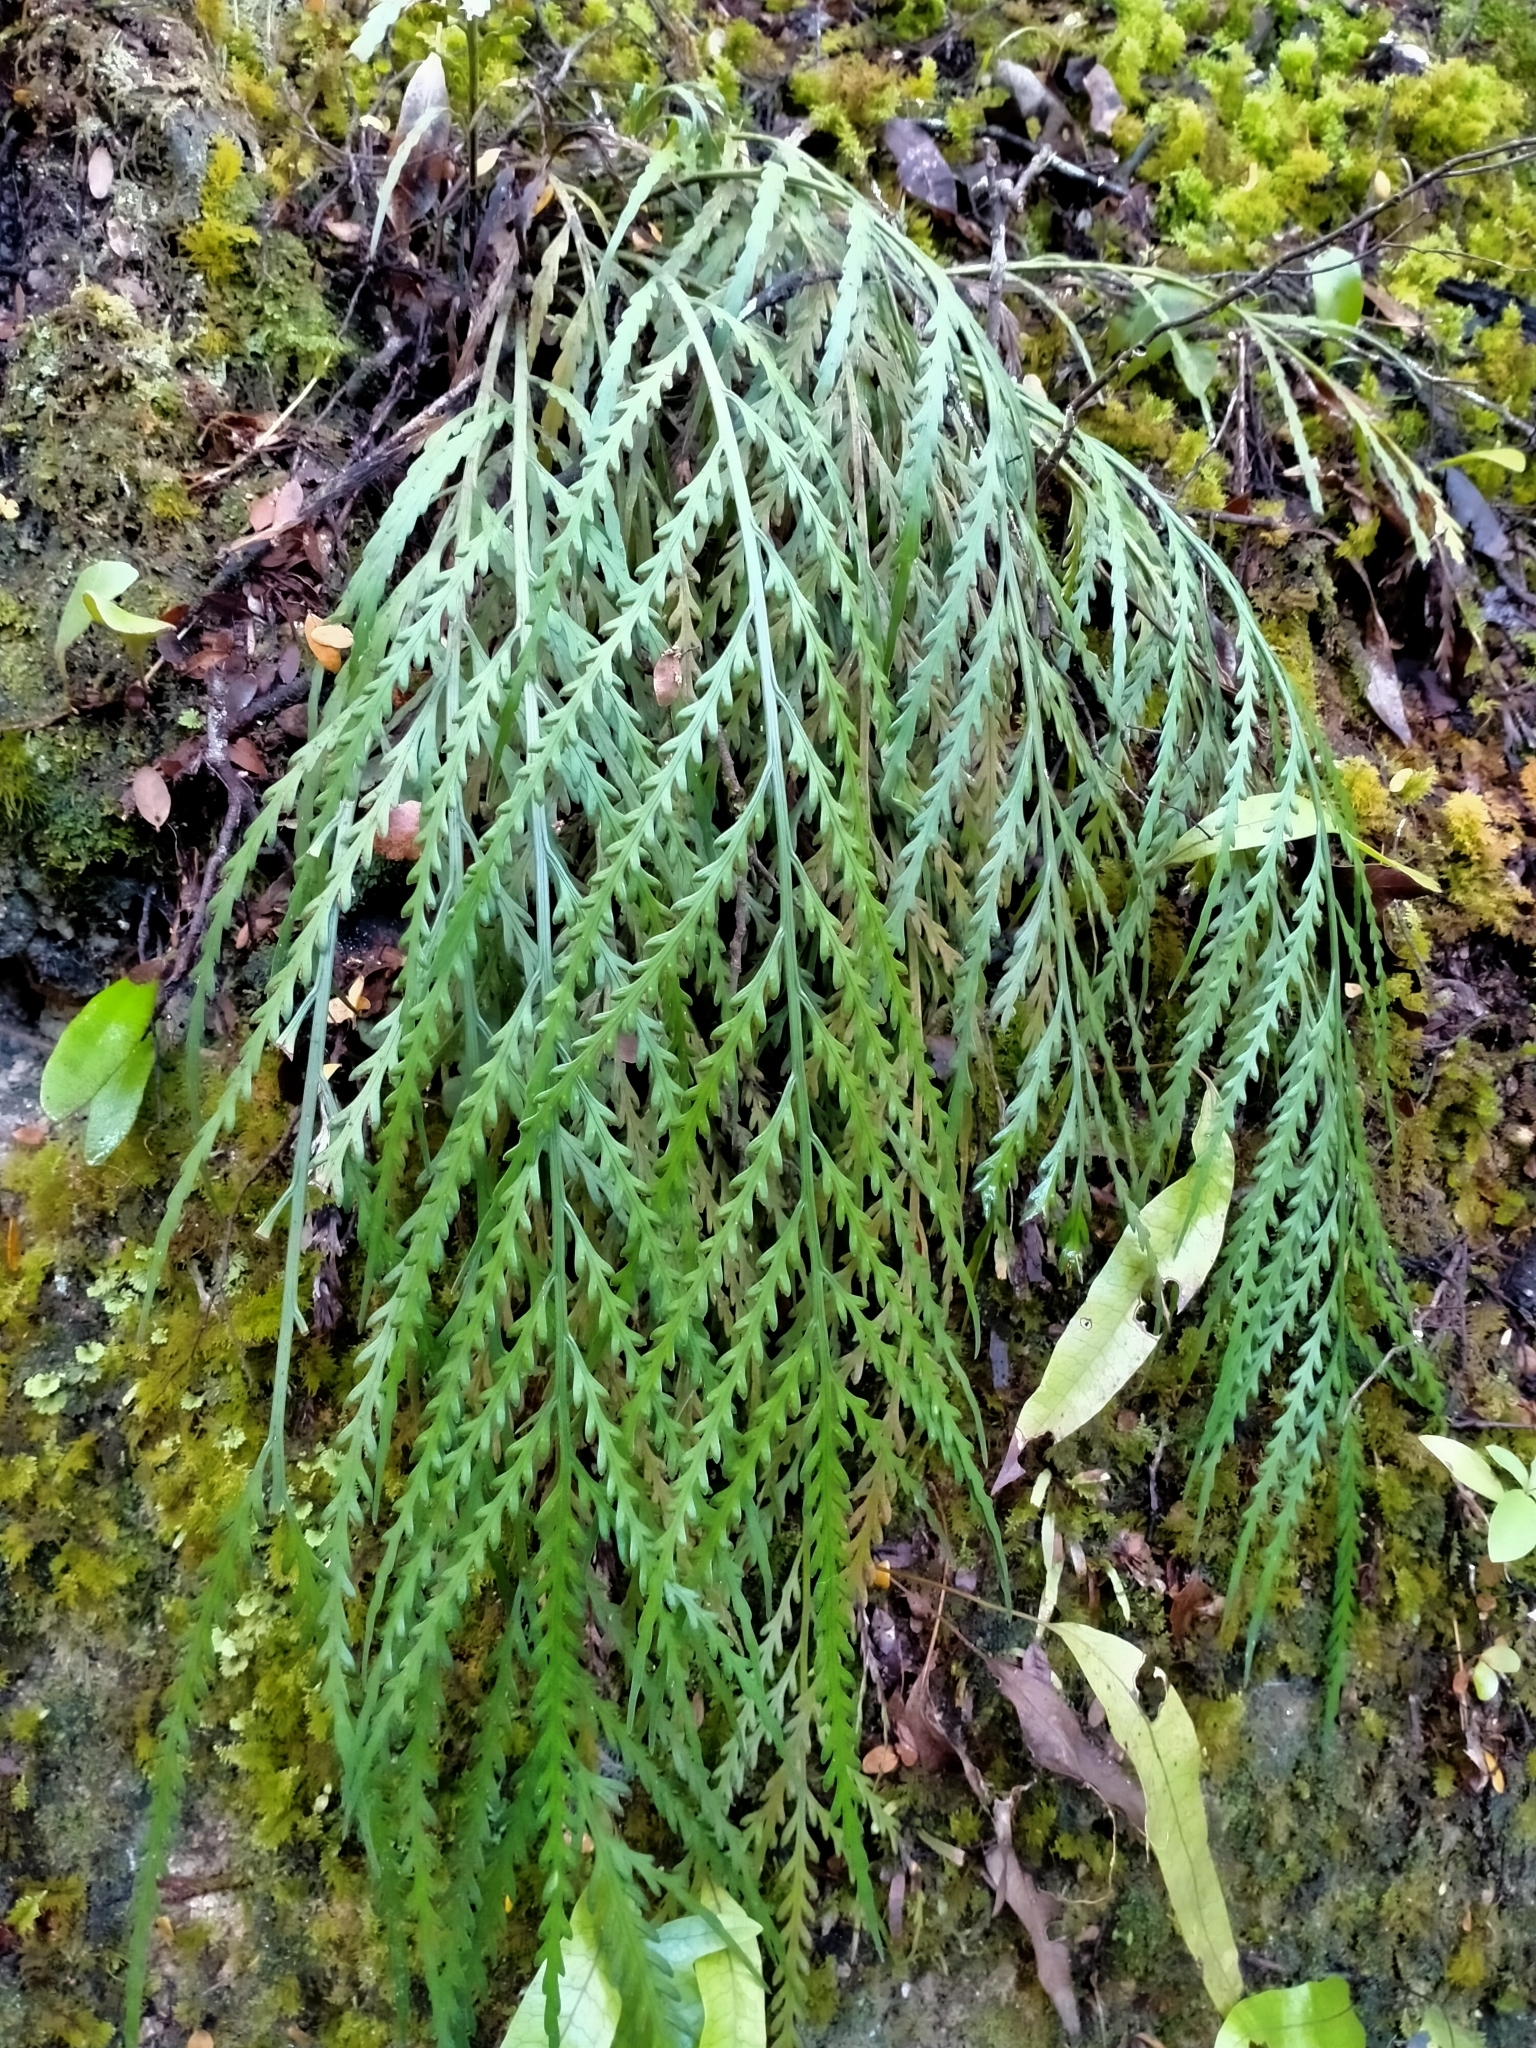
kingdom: Plantae
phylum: Tracheophyta
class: Polypodiopsida
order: Polypodiales
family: Aspleniaceae
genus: Asplenium
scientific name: Asplenium flaccidum
